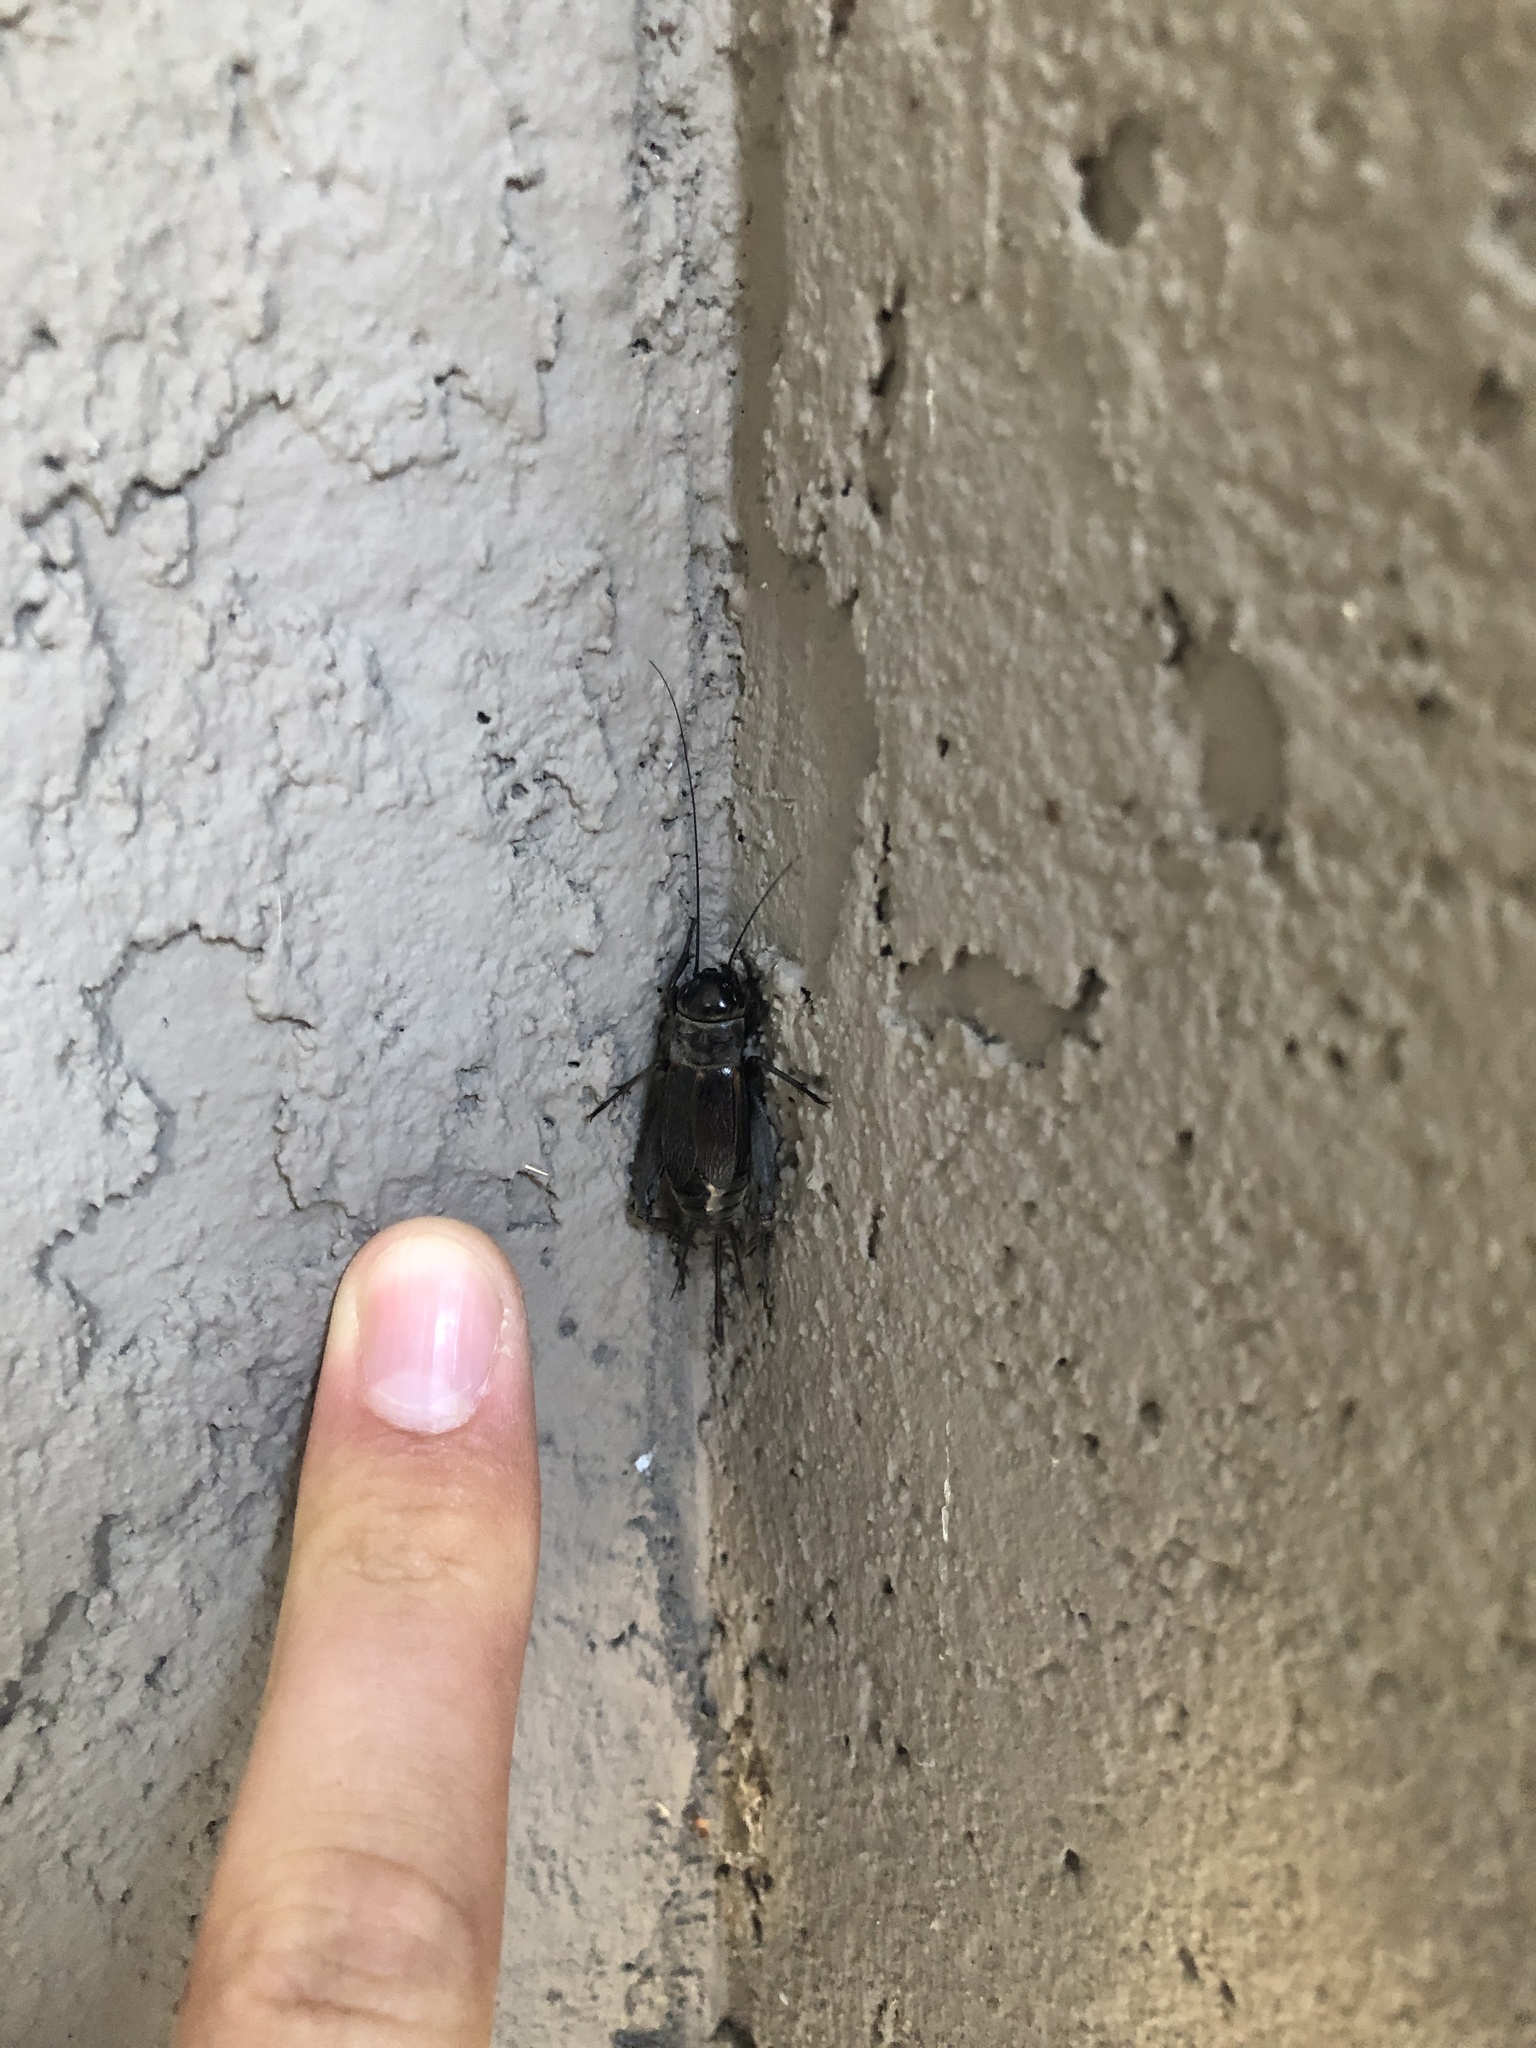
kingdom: Animalia
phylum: Arthropoda
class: Insecta
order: Orthoptera
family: Gryllidae
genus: Gryllus
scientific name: Gryllus veletis
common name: Spring field cricket
